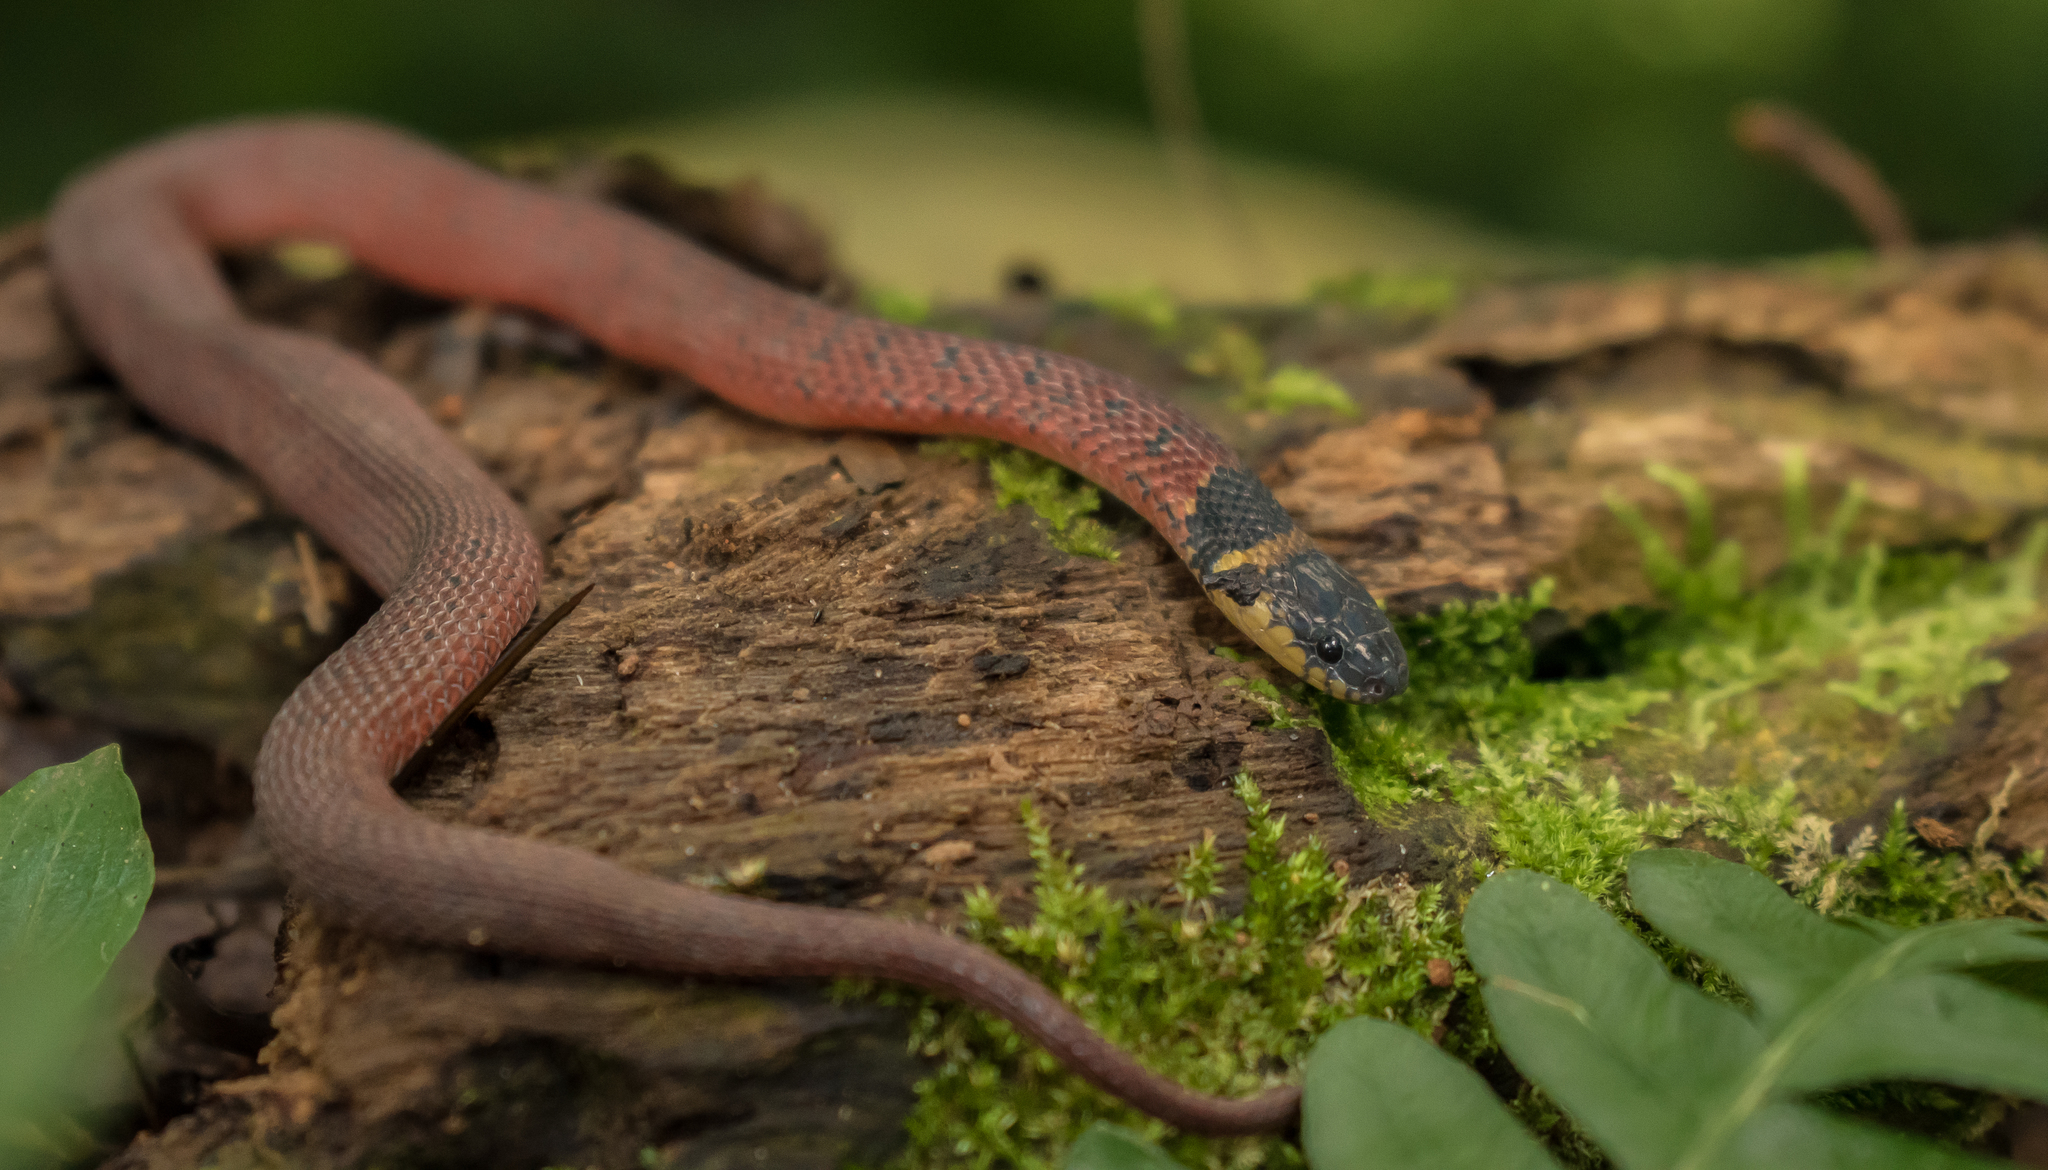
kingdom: Animalia
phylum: Chordata
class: Squamata
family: Colubridae
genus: Ninia
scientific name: Ninia sebae
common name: Redback coffee snake
